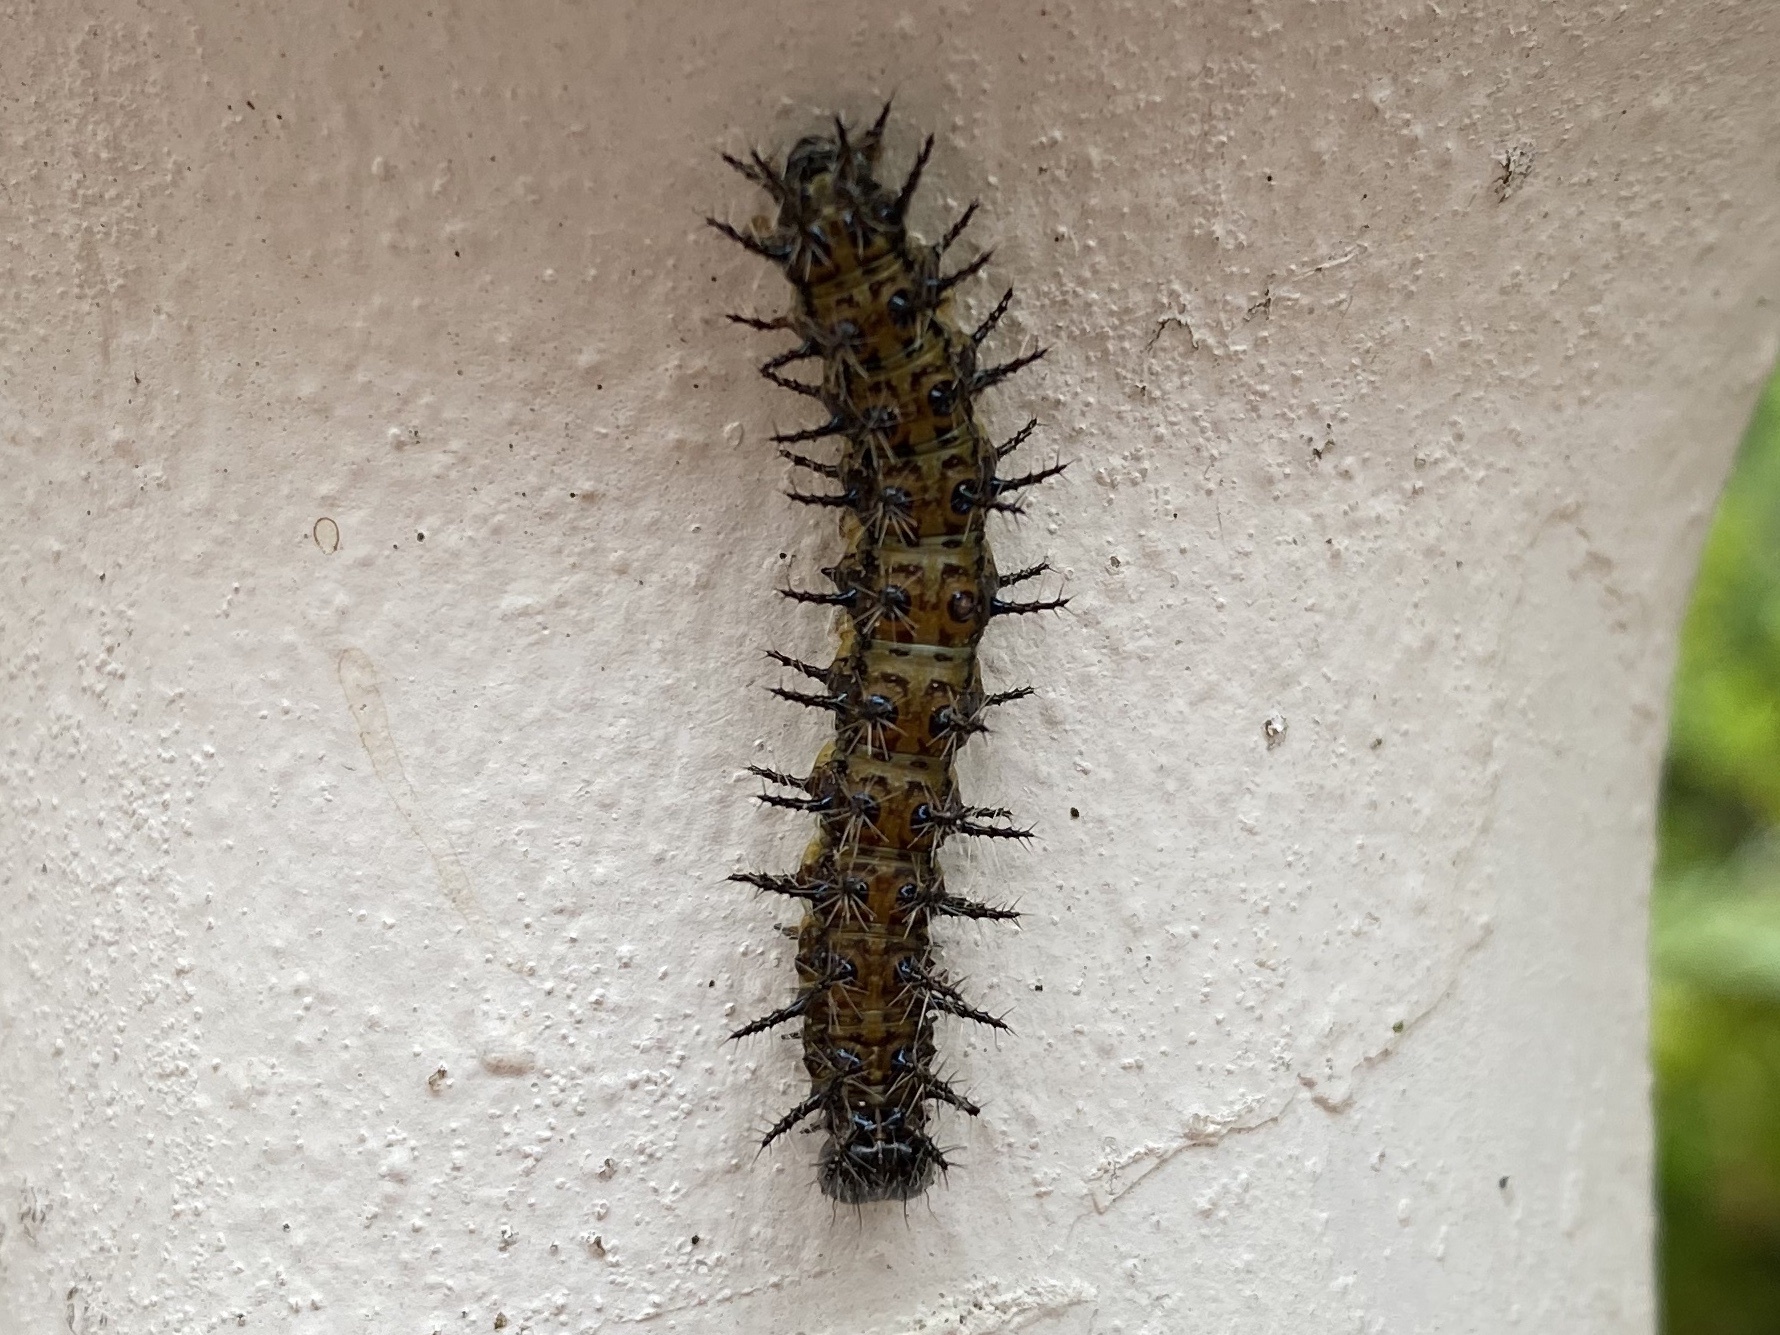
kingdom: Animalia
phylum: Arthropoda
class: Insecta
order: Lepidoptera
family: Nymphalidae
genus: Acraea
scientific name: Acraea horta
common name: Garden acraea
